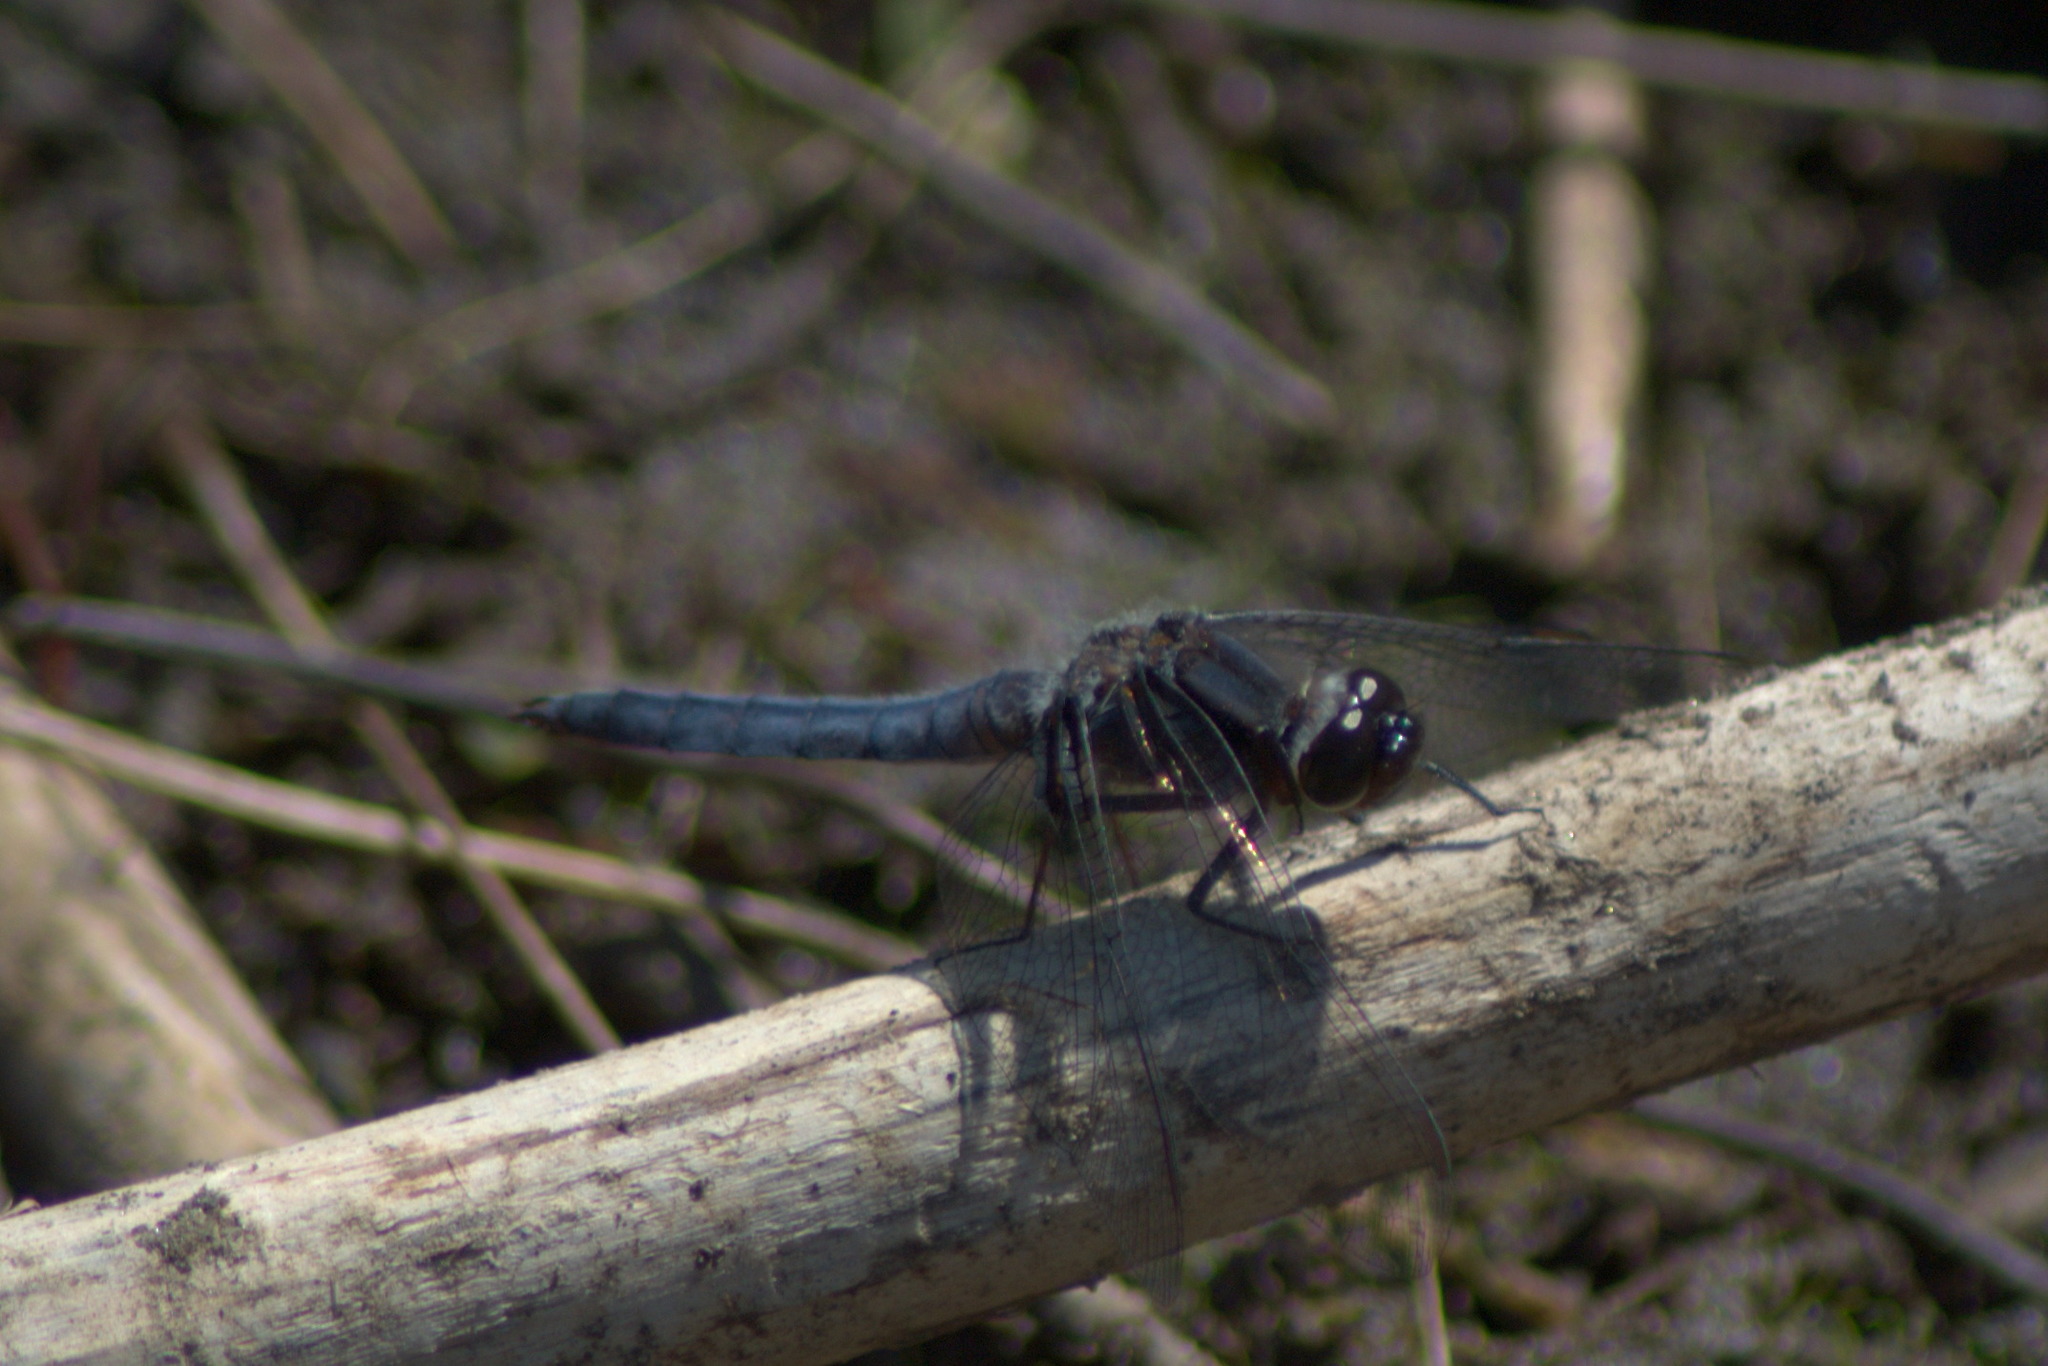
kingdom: Animalia
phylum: Arthropoda
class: Insecta
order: Odonata
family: Libellulidae
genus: Ladona
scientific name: Ladona deplanata
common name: Blue corporal
